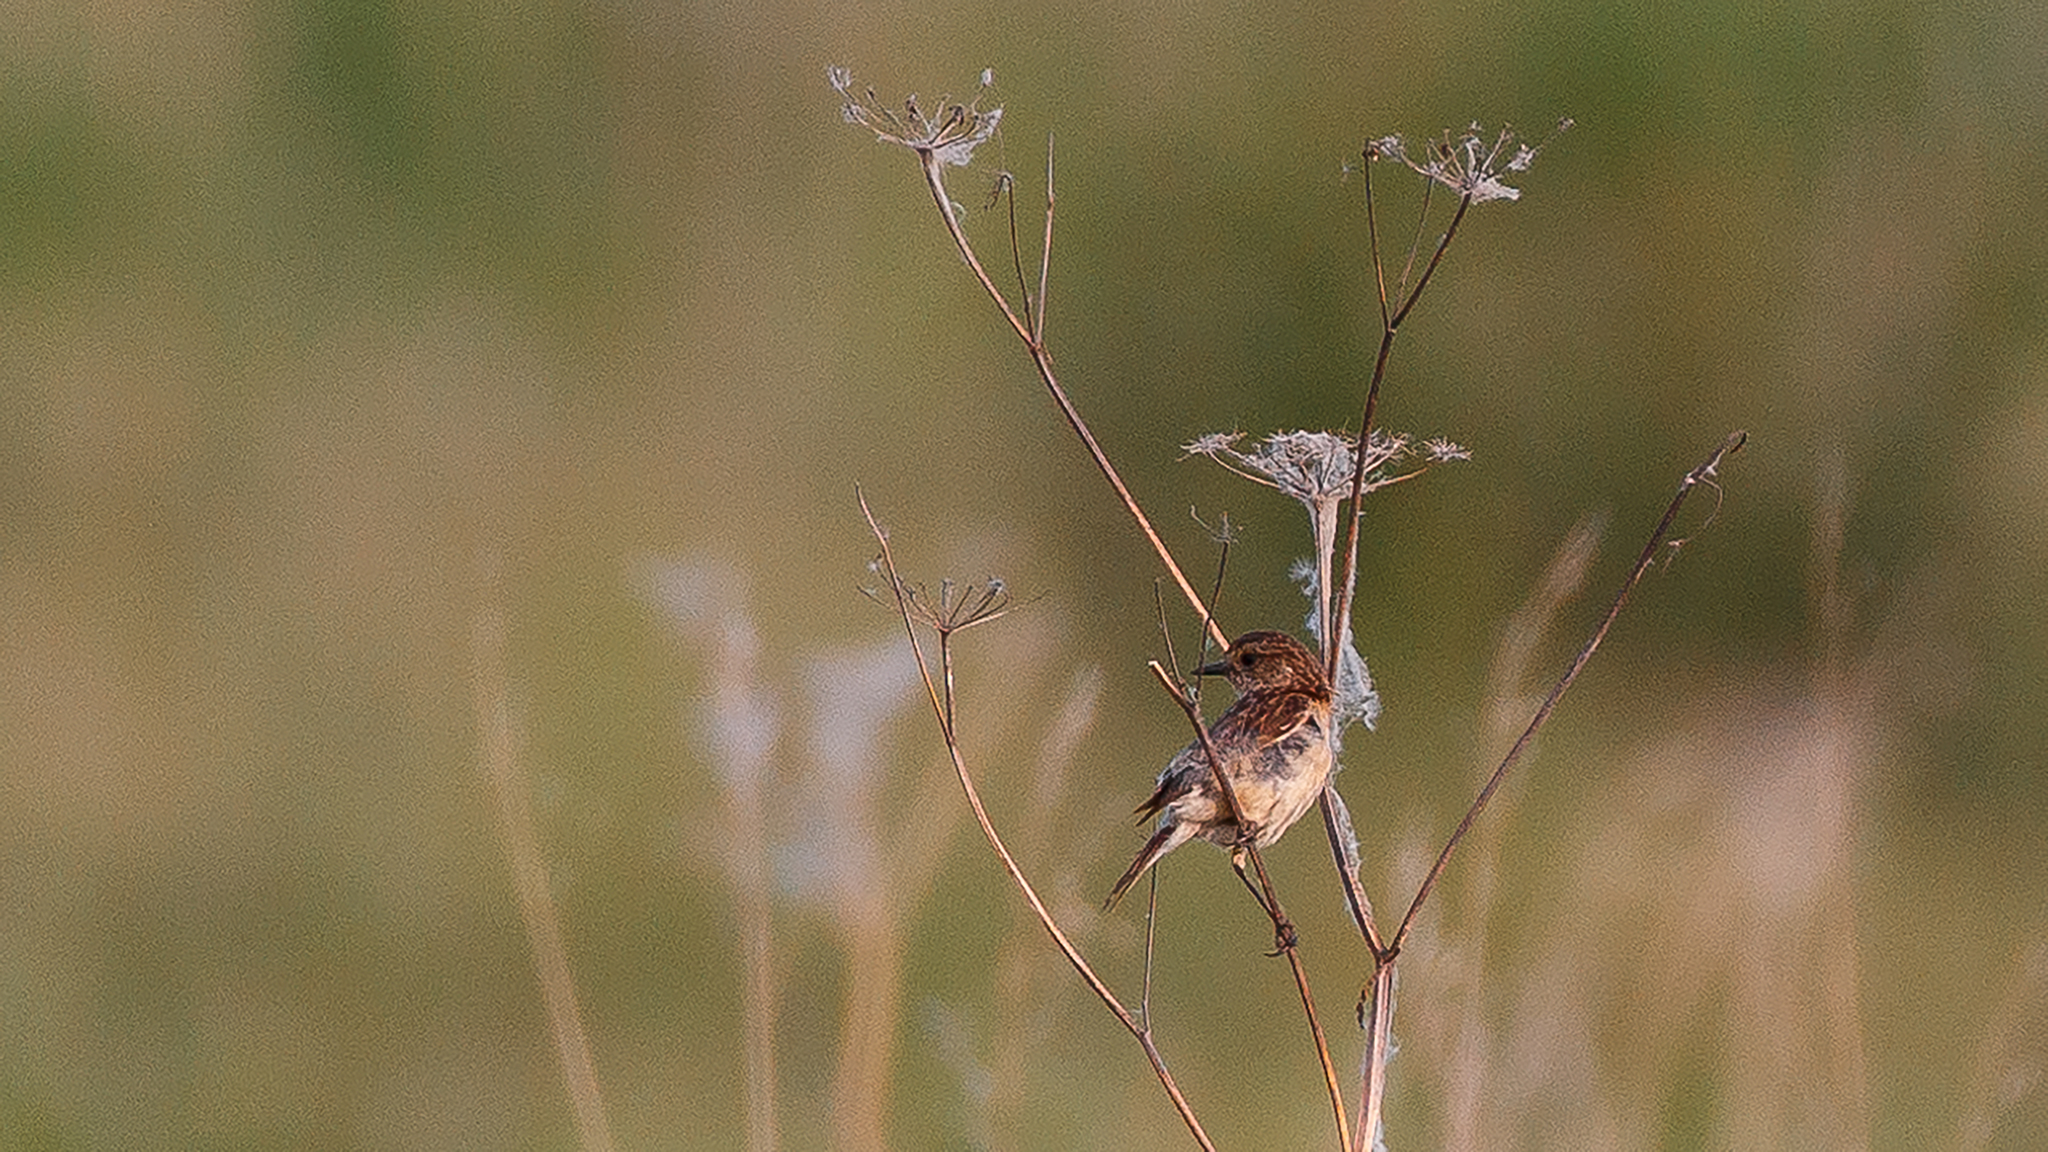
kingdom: Animalia
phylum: Chordata
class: Aves
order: Passeriformes
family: Muscicapidae
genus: Saxicola
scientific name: Saxicola maurus
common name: Siberian stonechat
